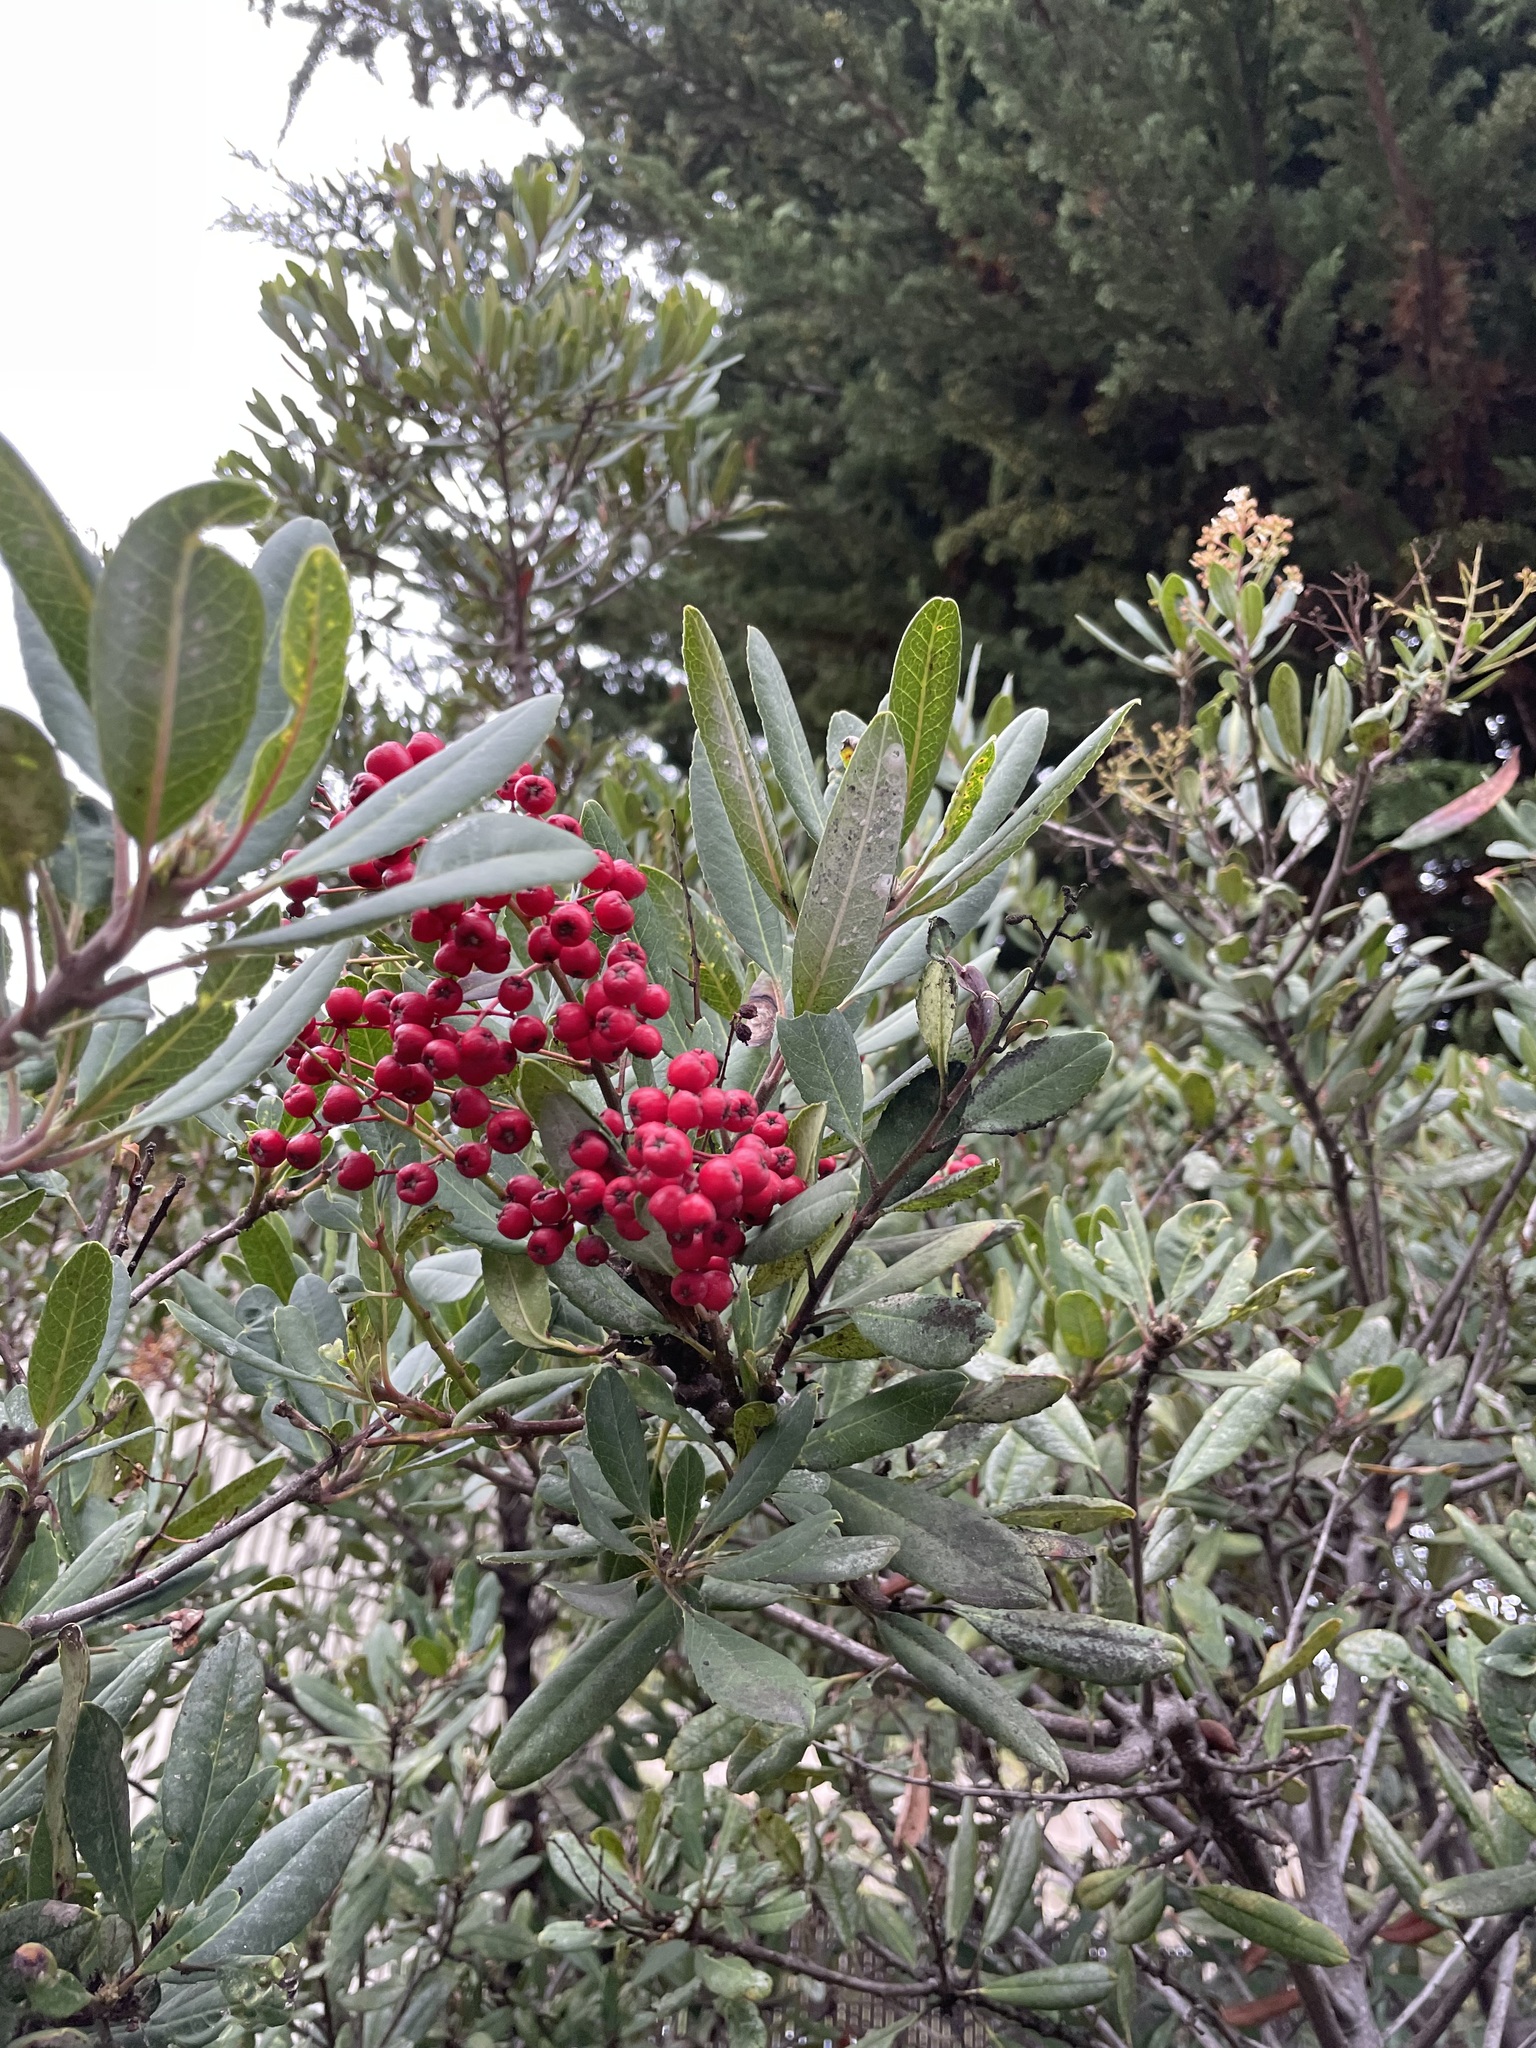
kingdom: Plantae
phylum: Tracheophyta
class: Magnoliopsida
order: Rosales
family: Rosaceae
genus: Heteromeles
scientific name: Heteromeles arbutifolia
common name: California-holly
